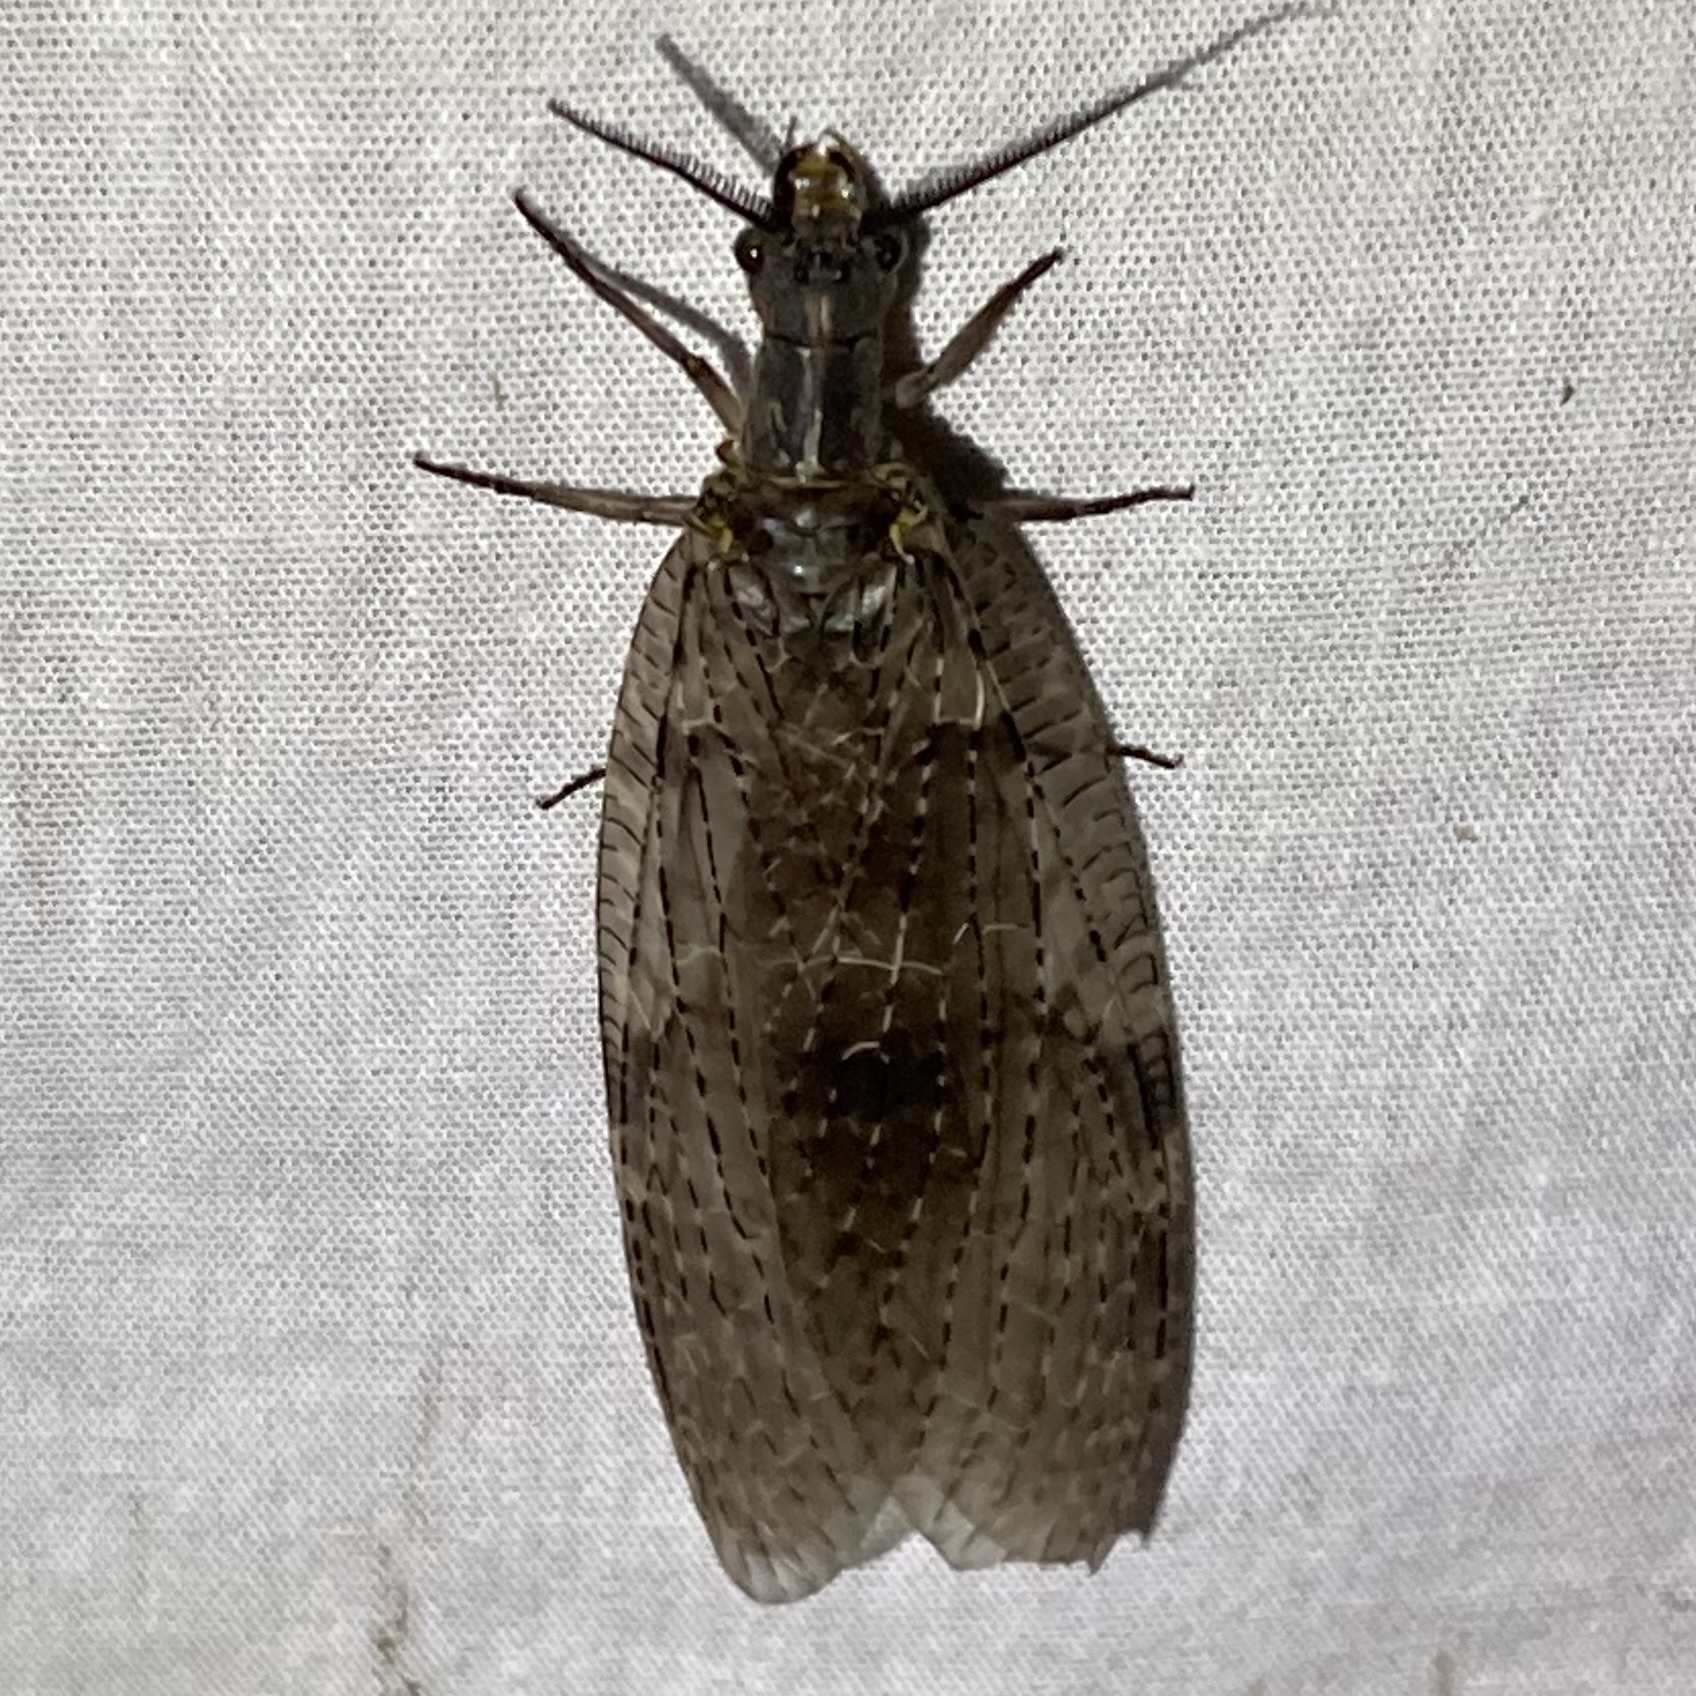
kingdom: Animalia
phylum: Arthropoda
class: Insecta
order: Megaloptera
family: Corydalidae
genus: Chauliodes
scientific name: Chauliodes pectinicornis
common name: Summer fishfly
